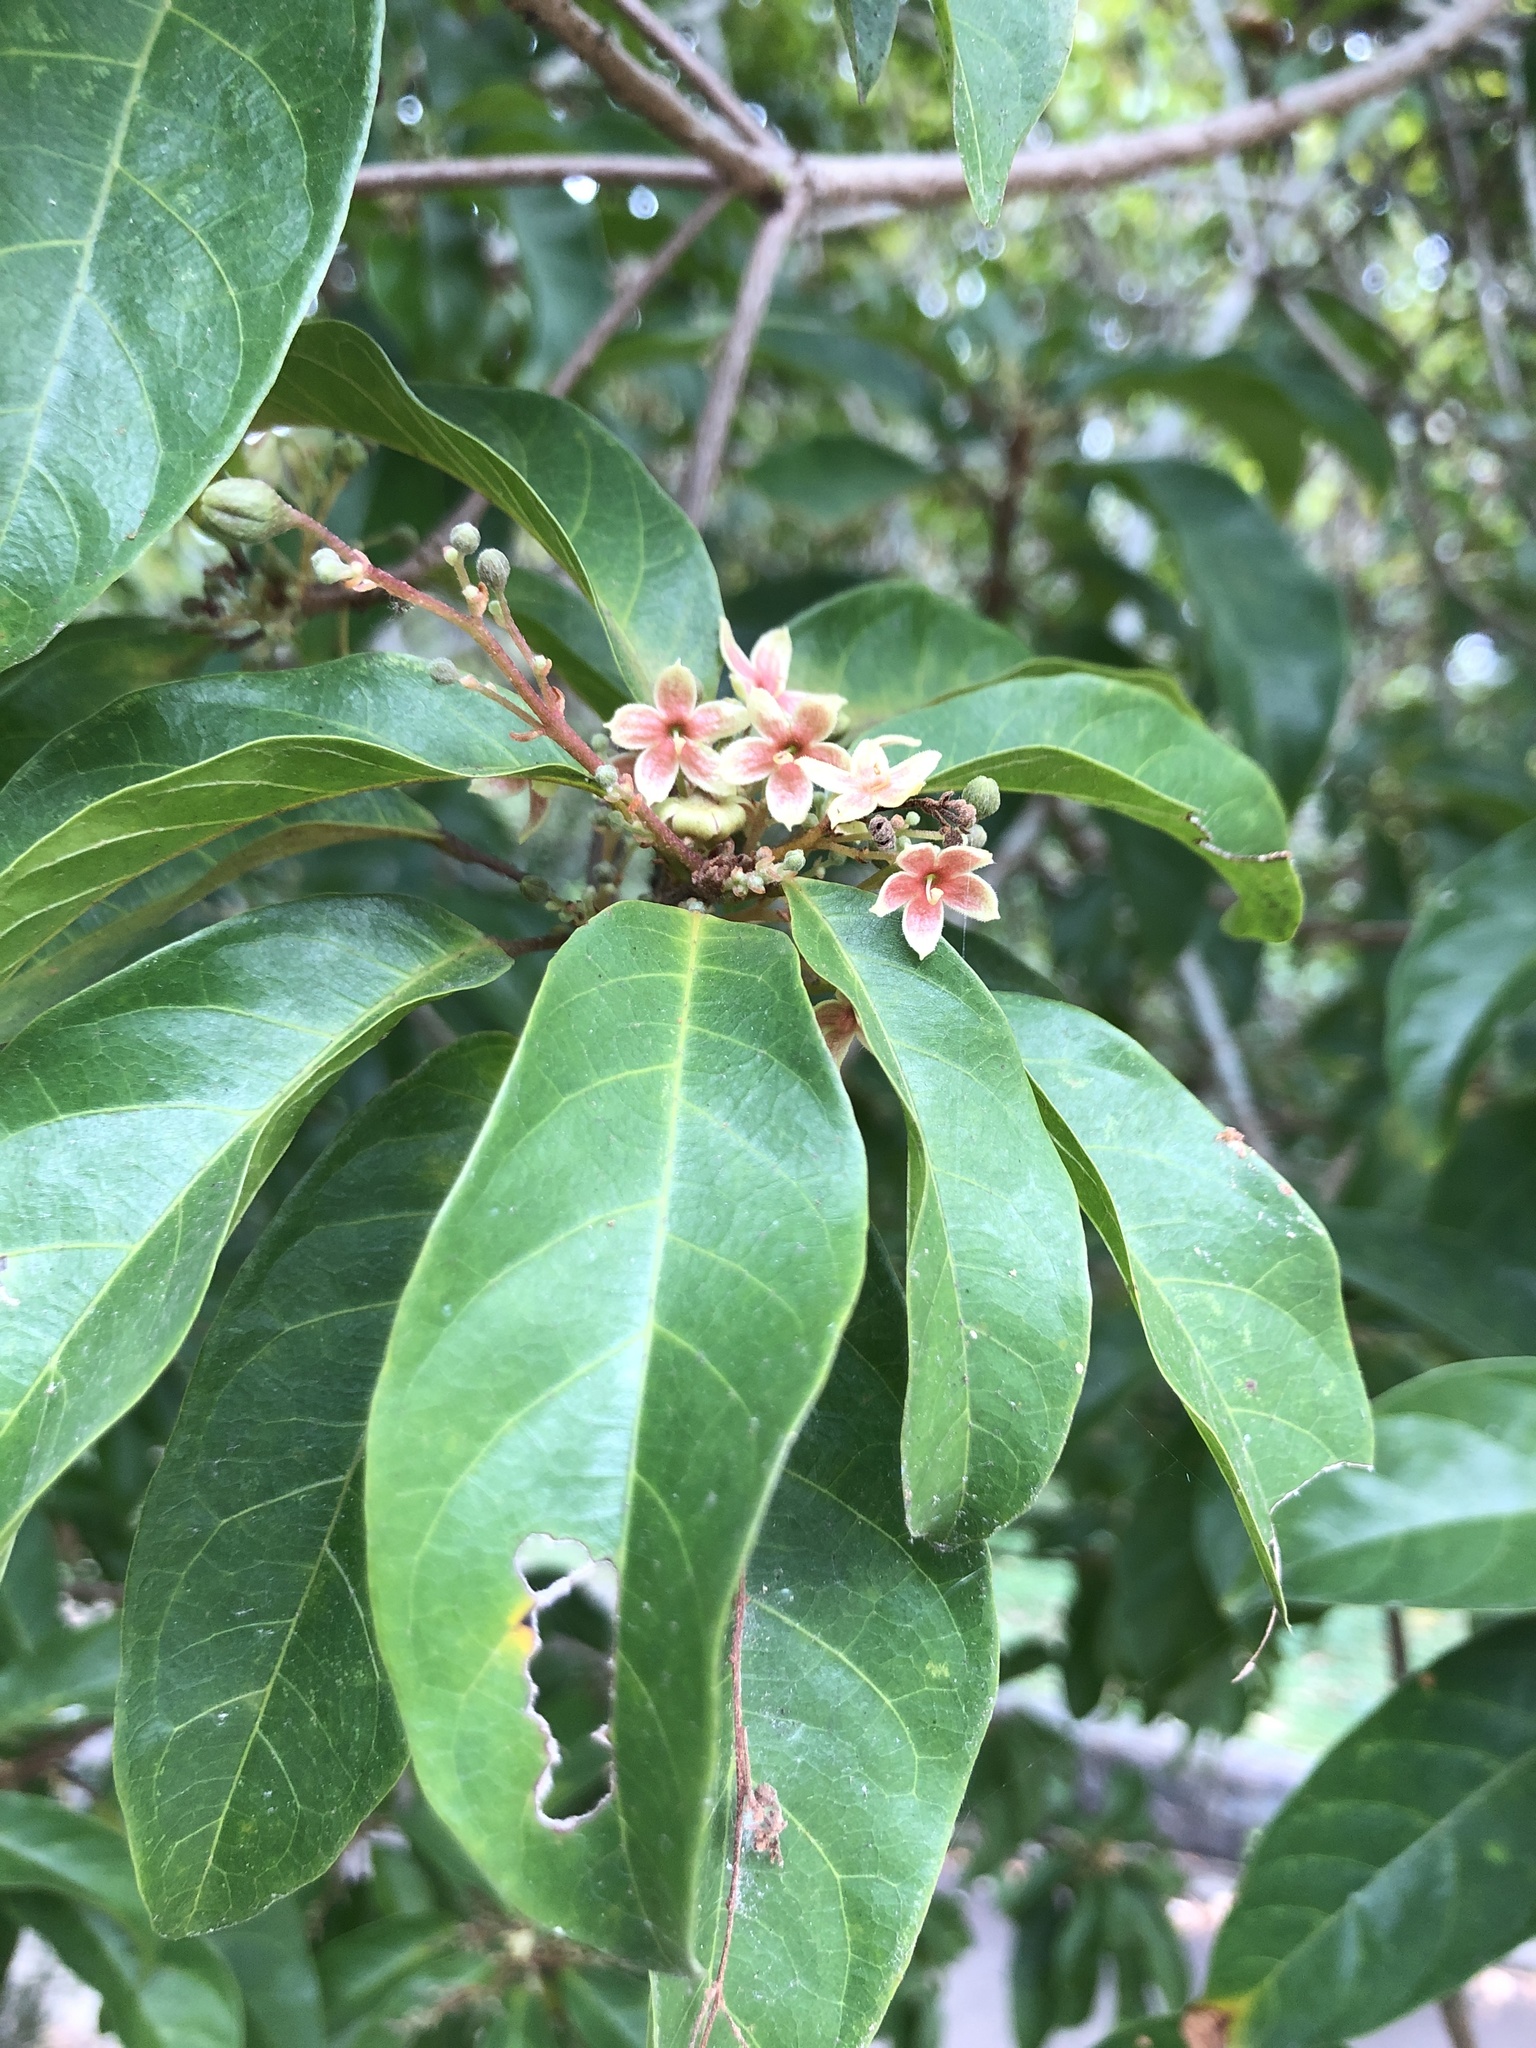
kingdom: Plantae
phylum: Tracheophyta
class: Magnoliopsida
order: Malvales
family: Malvaceae
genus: Sterculia
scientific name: Sterculia lanceolata
